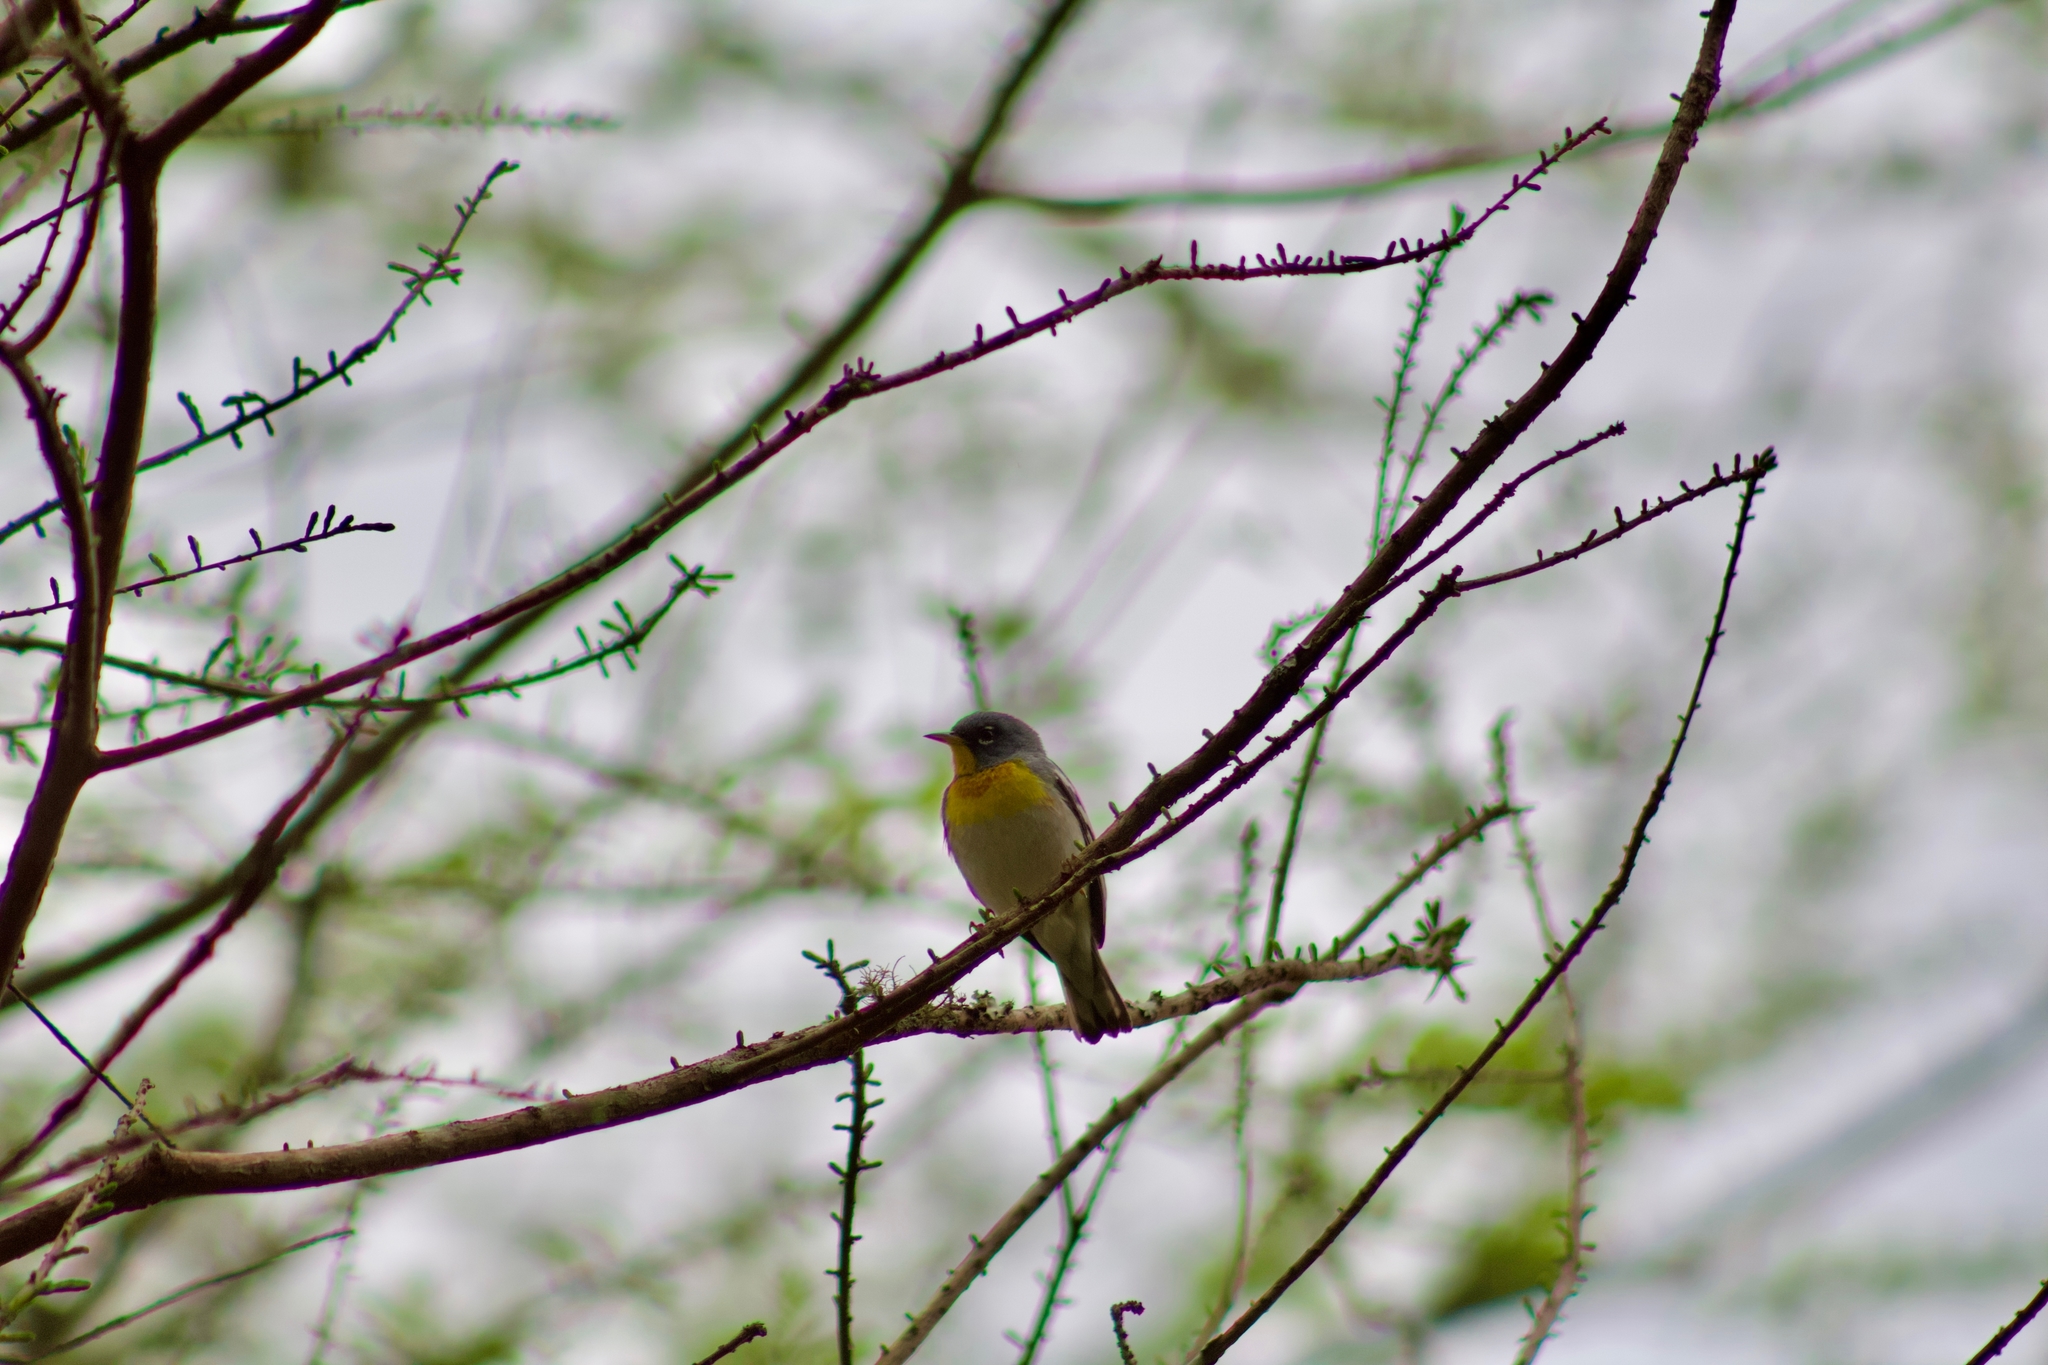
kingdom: Animalia
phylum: Chordata
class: Aves
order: Passeriformes
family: Parulidae
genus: Setophaga
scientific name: Setophaga americana
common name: Northern parula
